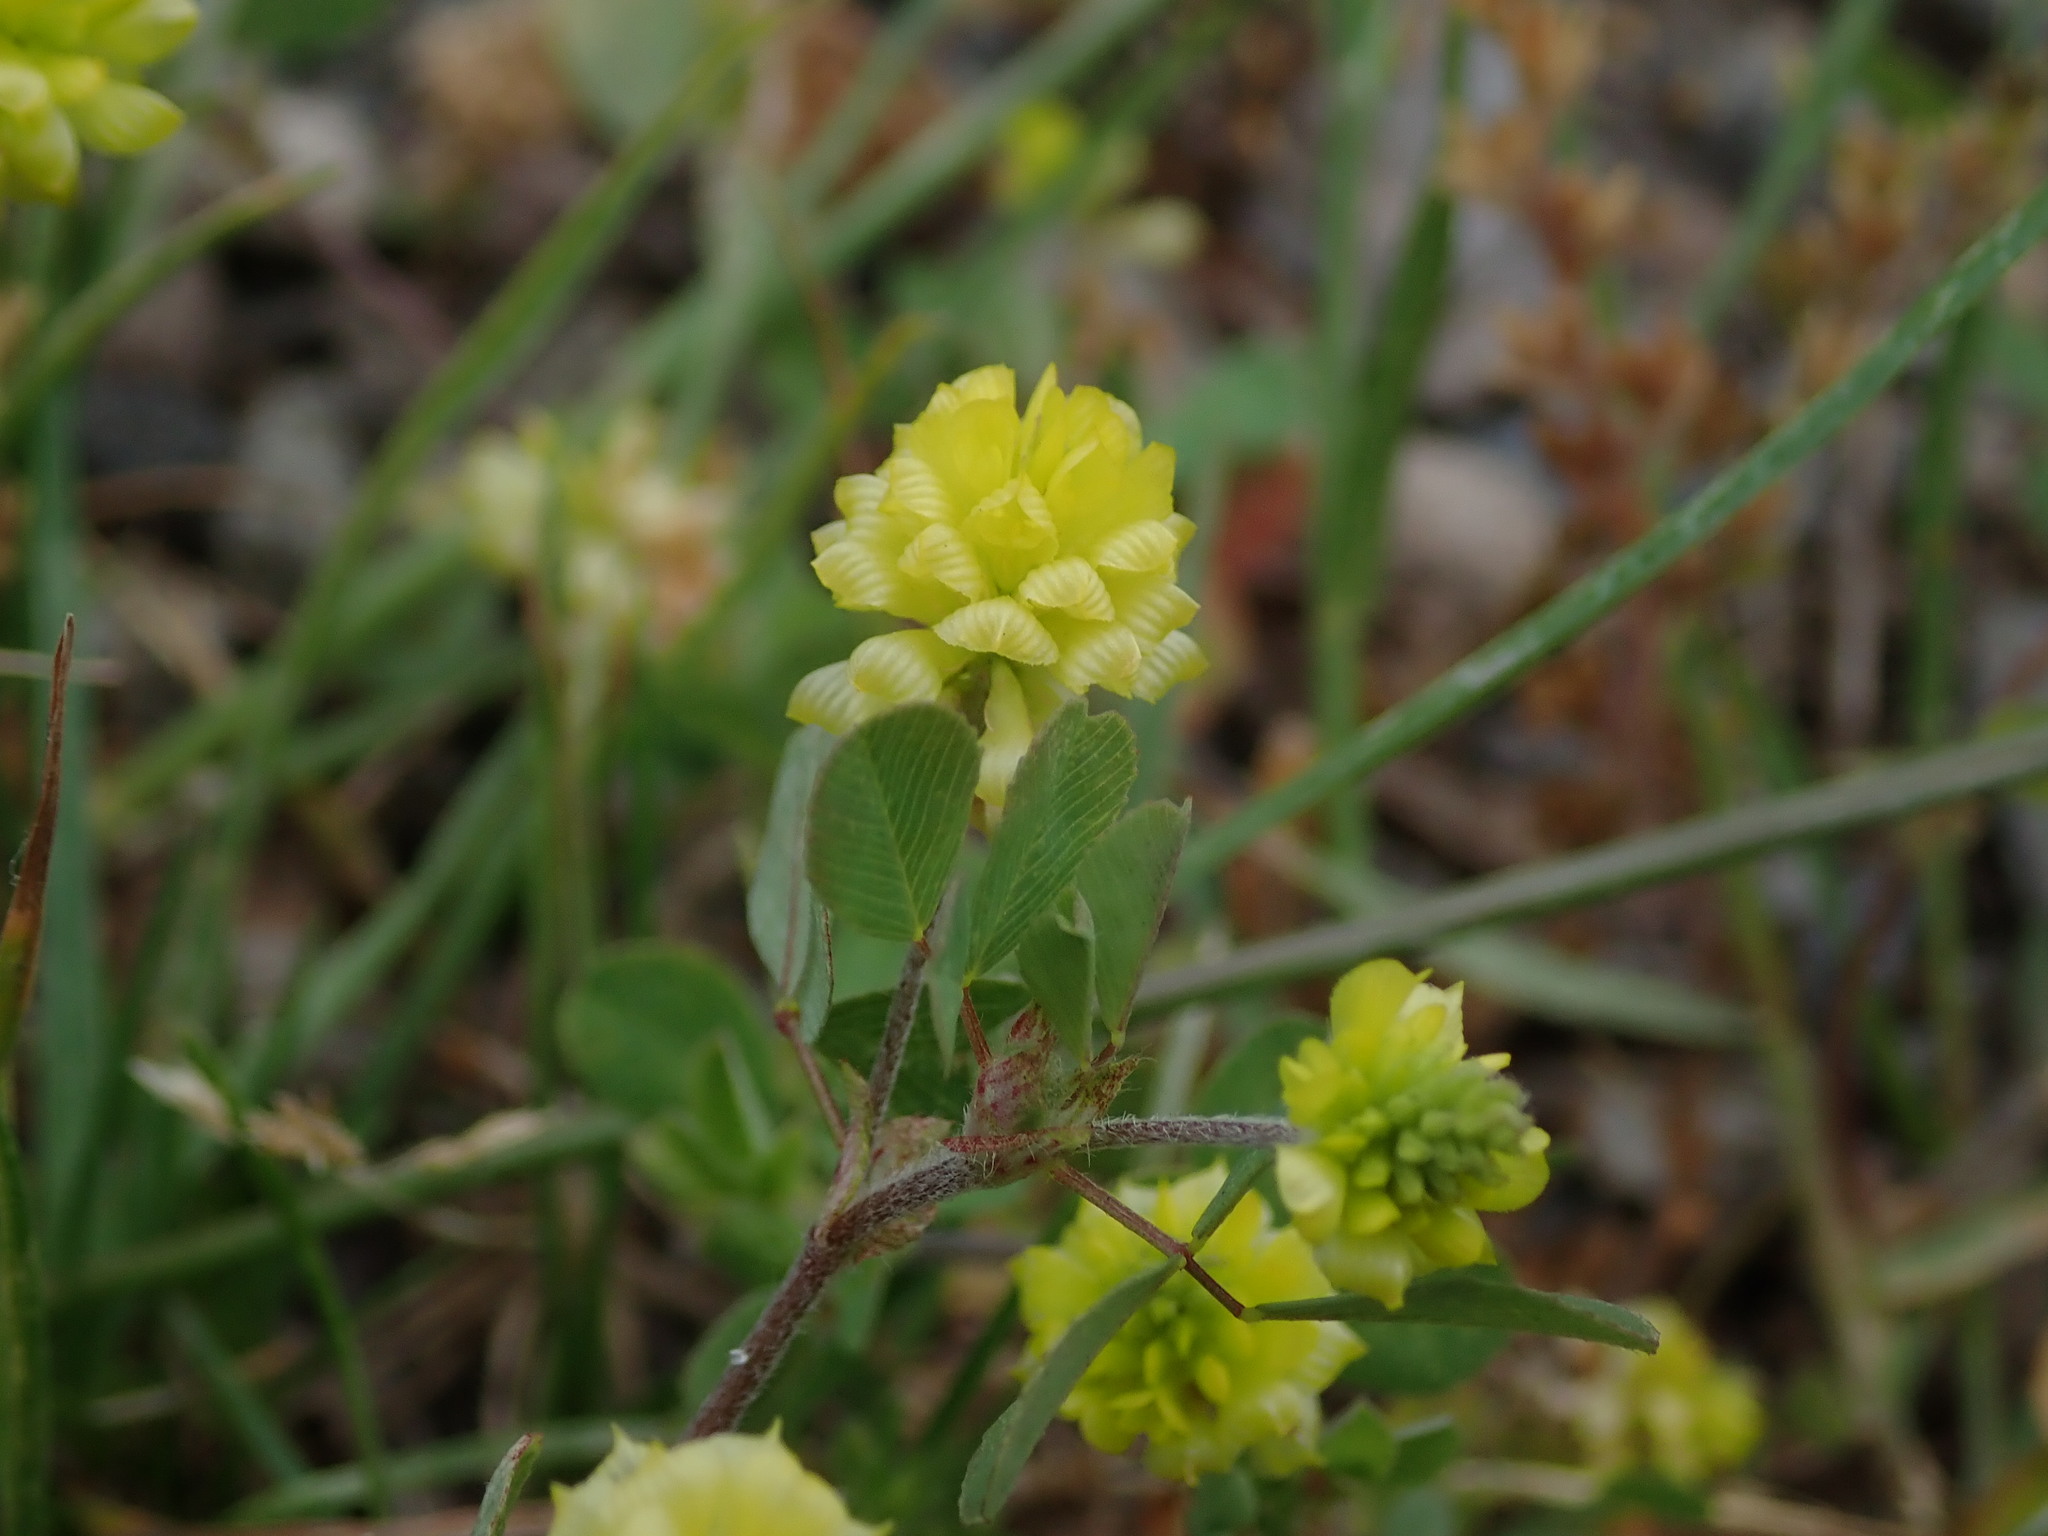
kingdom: Plantae
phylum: Tracheophyta
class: Magnoliopsida
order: Fabales
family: Fabaceae
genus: Trifolium
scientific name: Trifolium campestre
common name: Field clover
